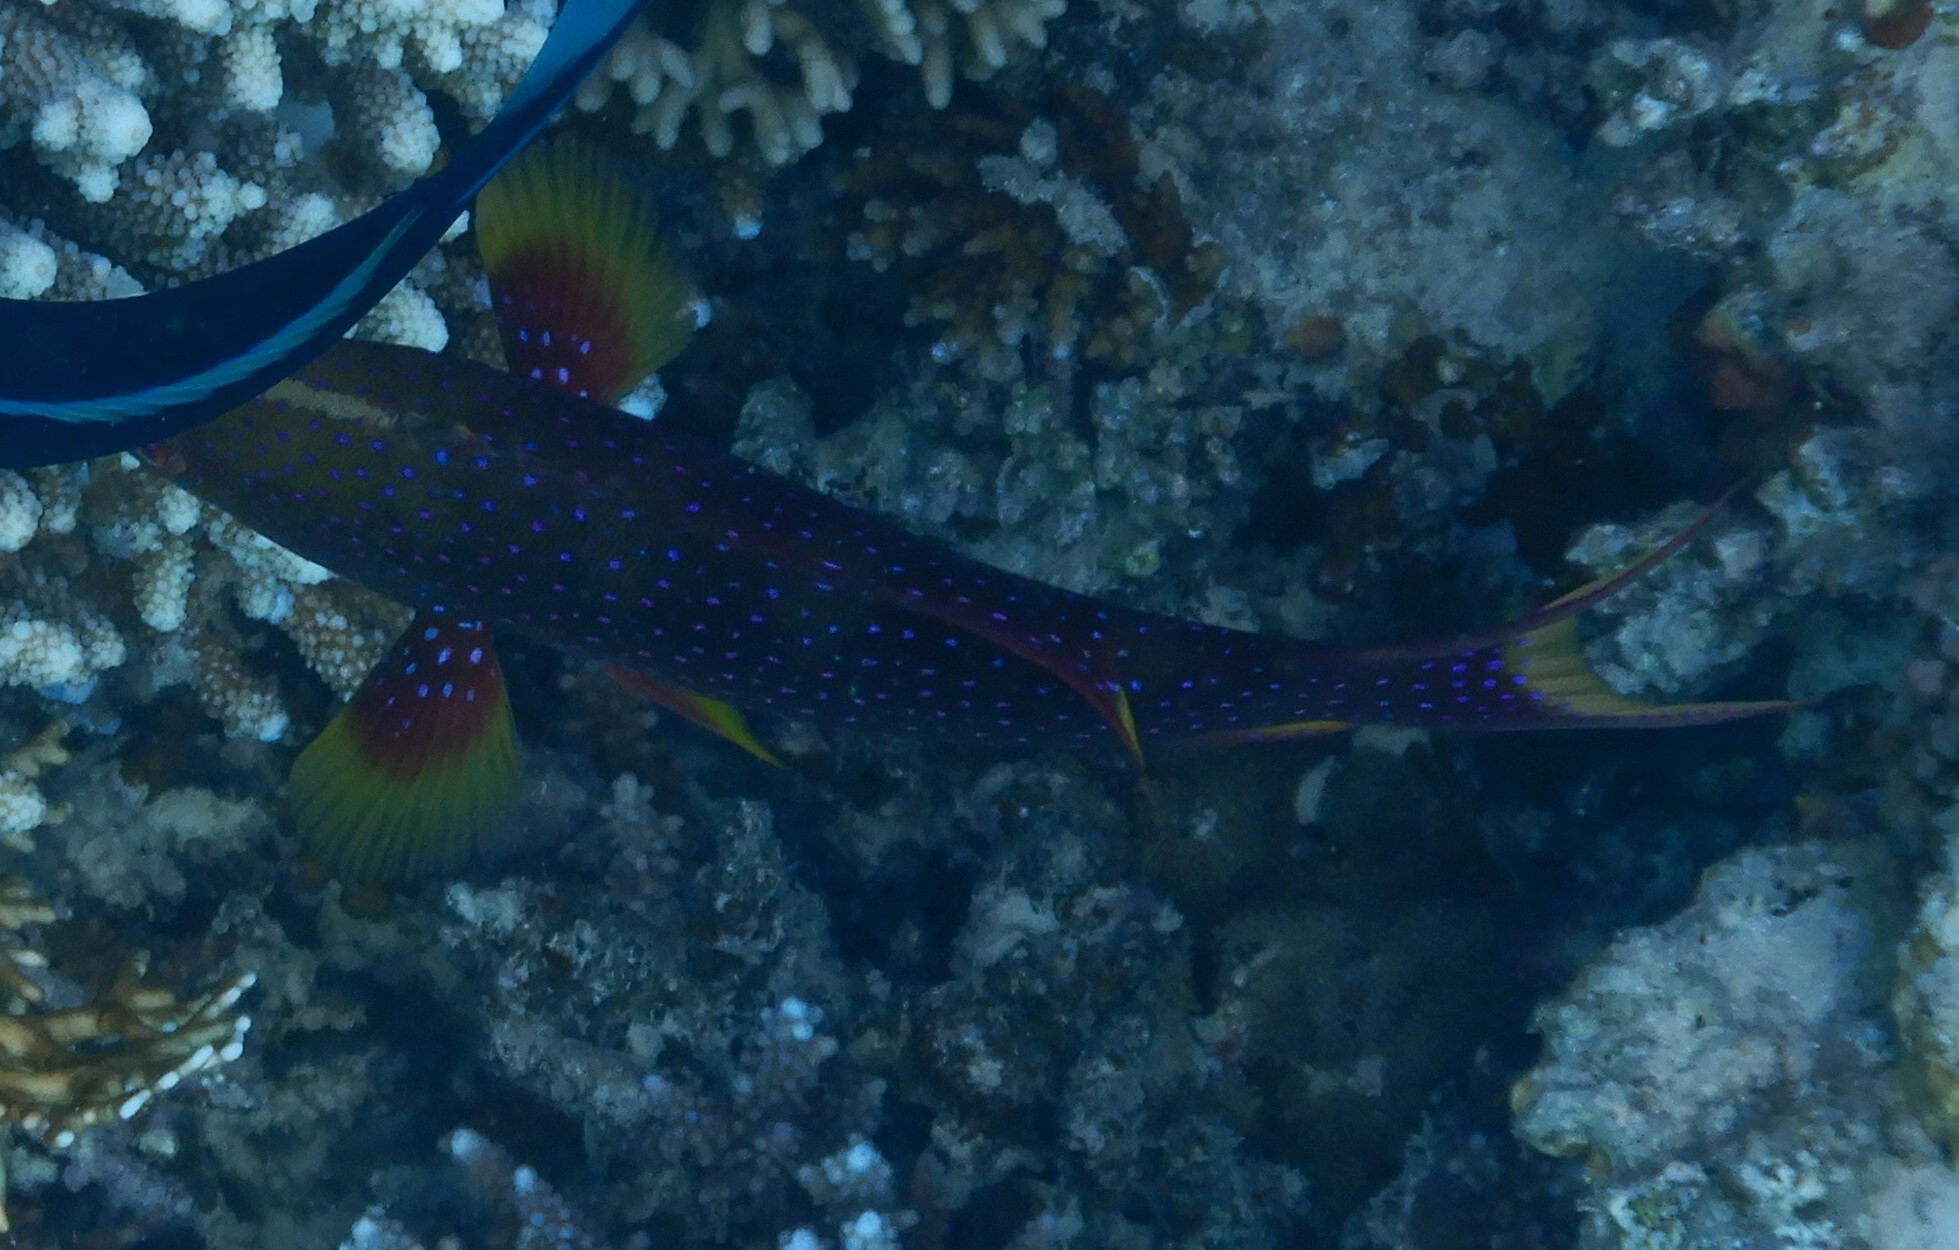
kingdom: Animalia
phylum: Chordata
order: Perciformes
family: Serranidae
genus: Variola
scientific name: Variola louti
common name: Yellow-edged lyretail
